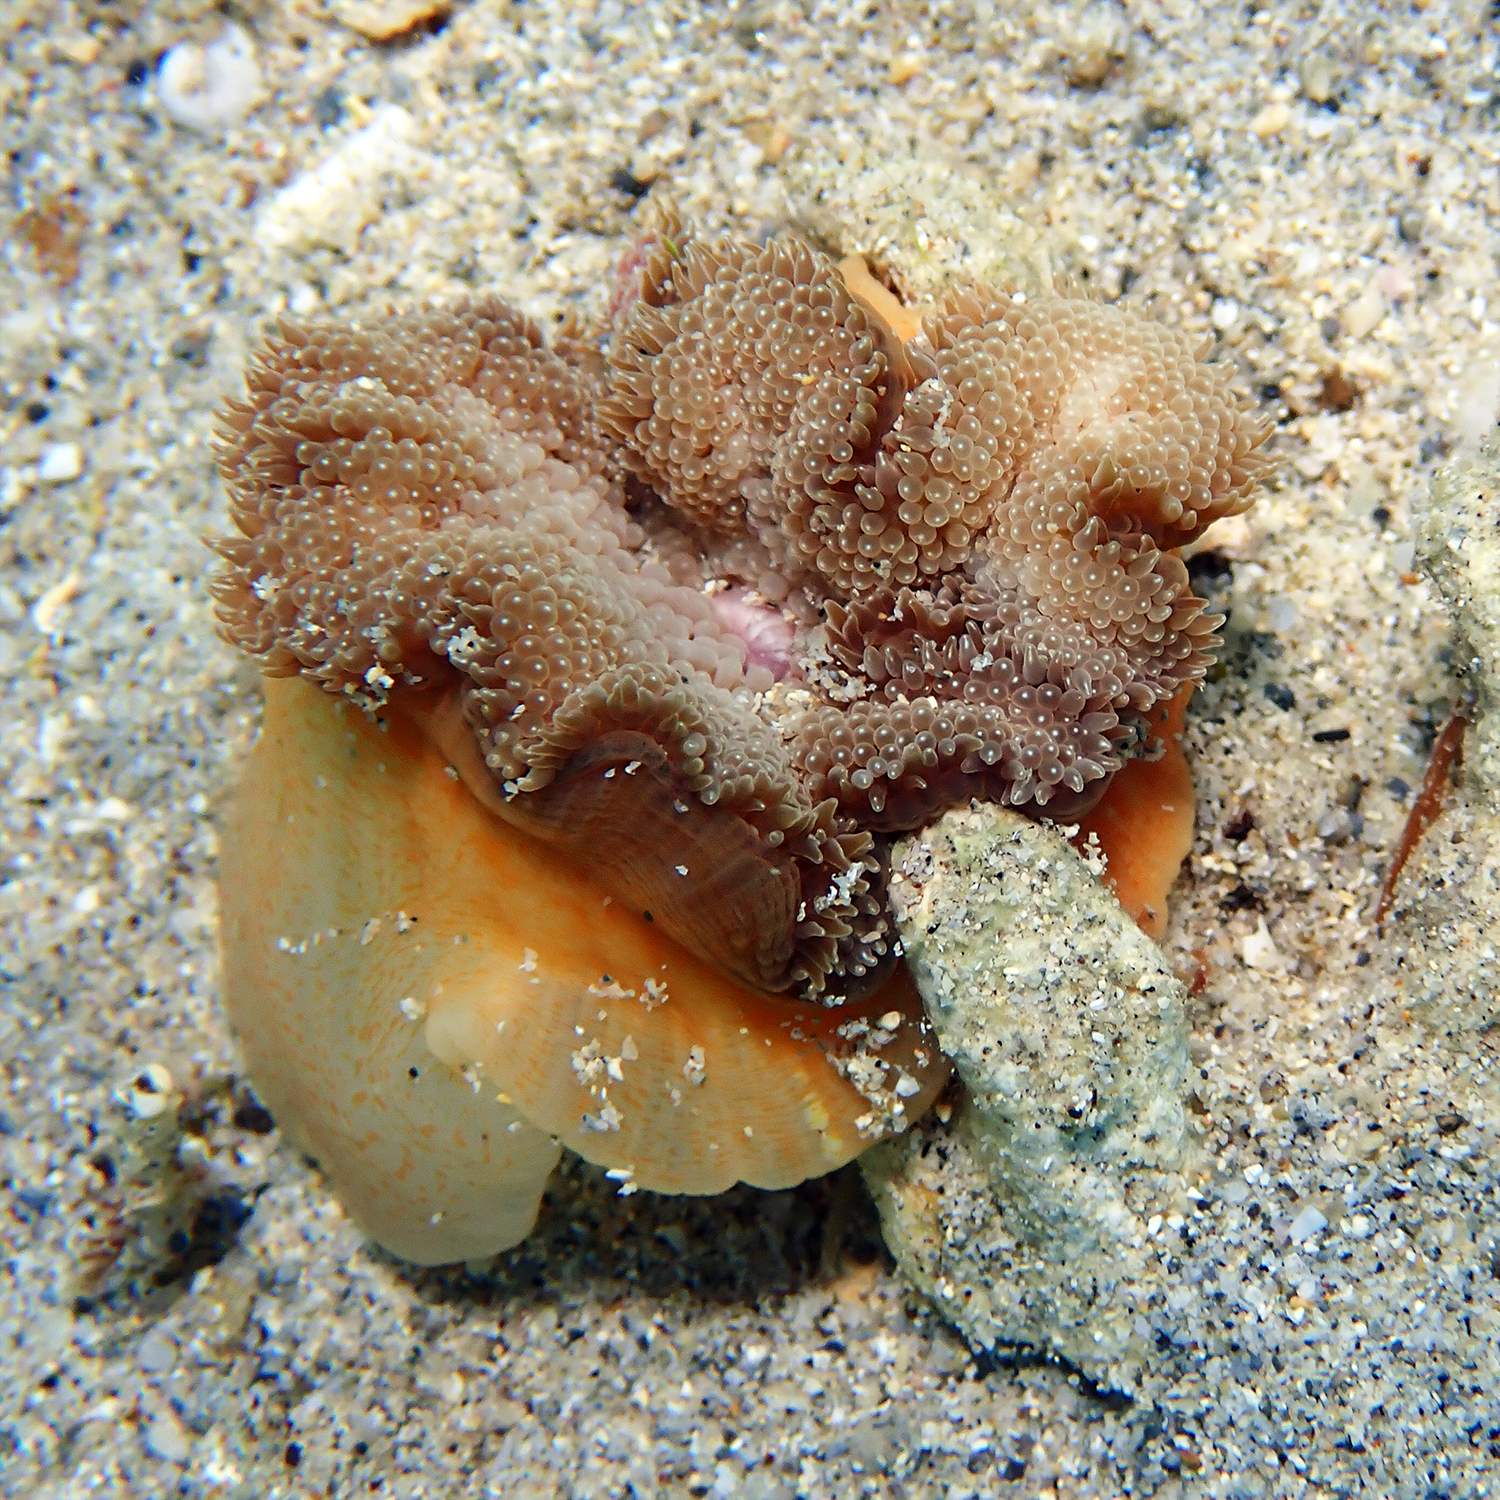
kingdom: Animalia
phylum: Cnidaria
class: Anthozoa
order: Actiniaria
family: Stichodactylidae
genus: Stichodactyla
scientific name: Stichodactyla tapetum
